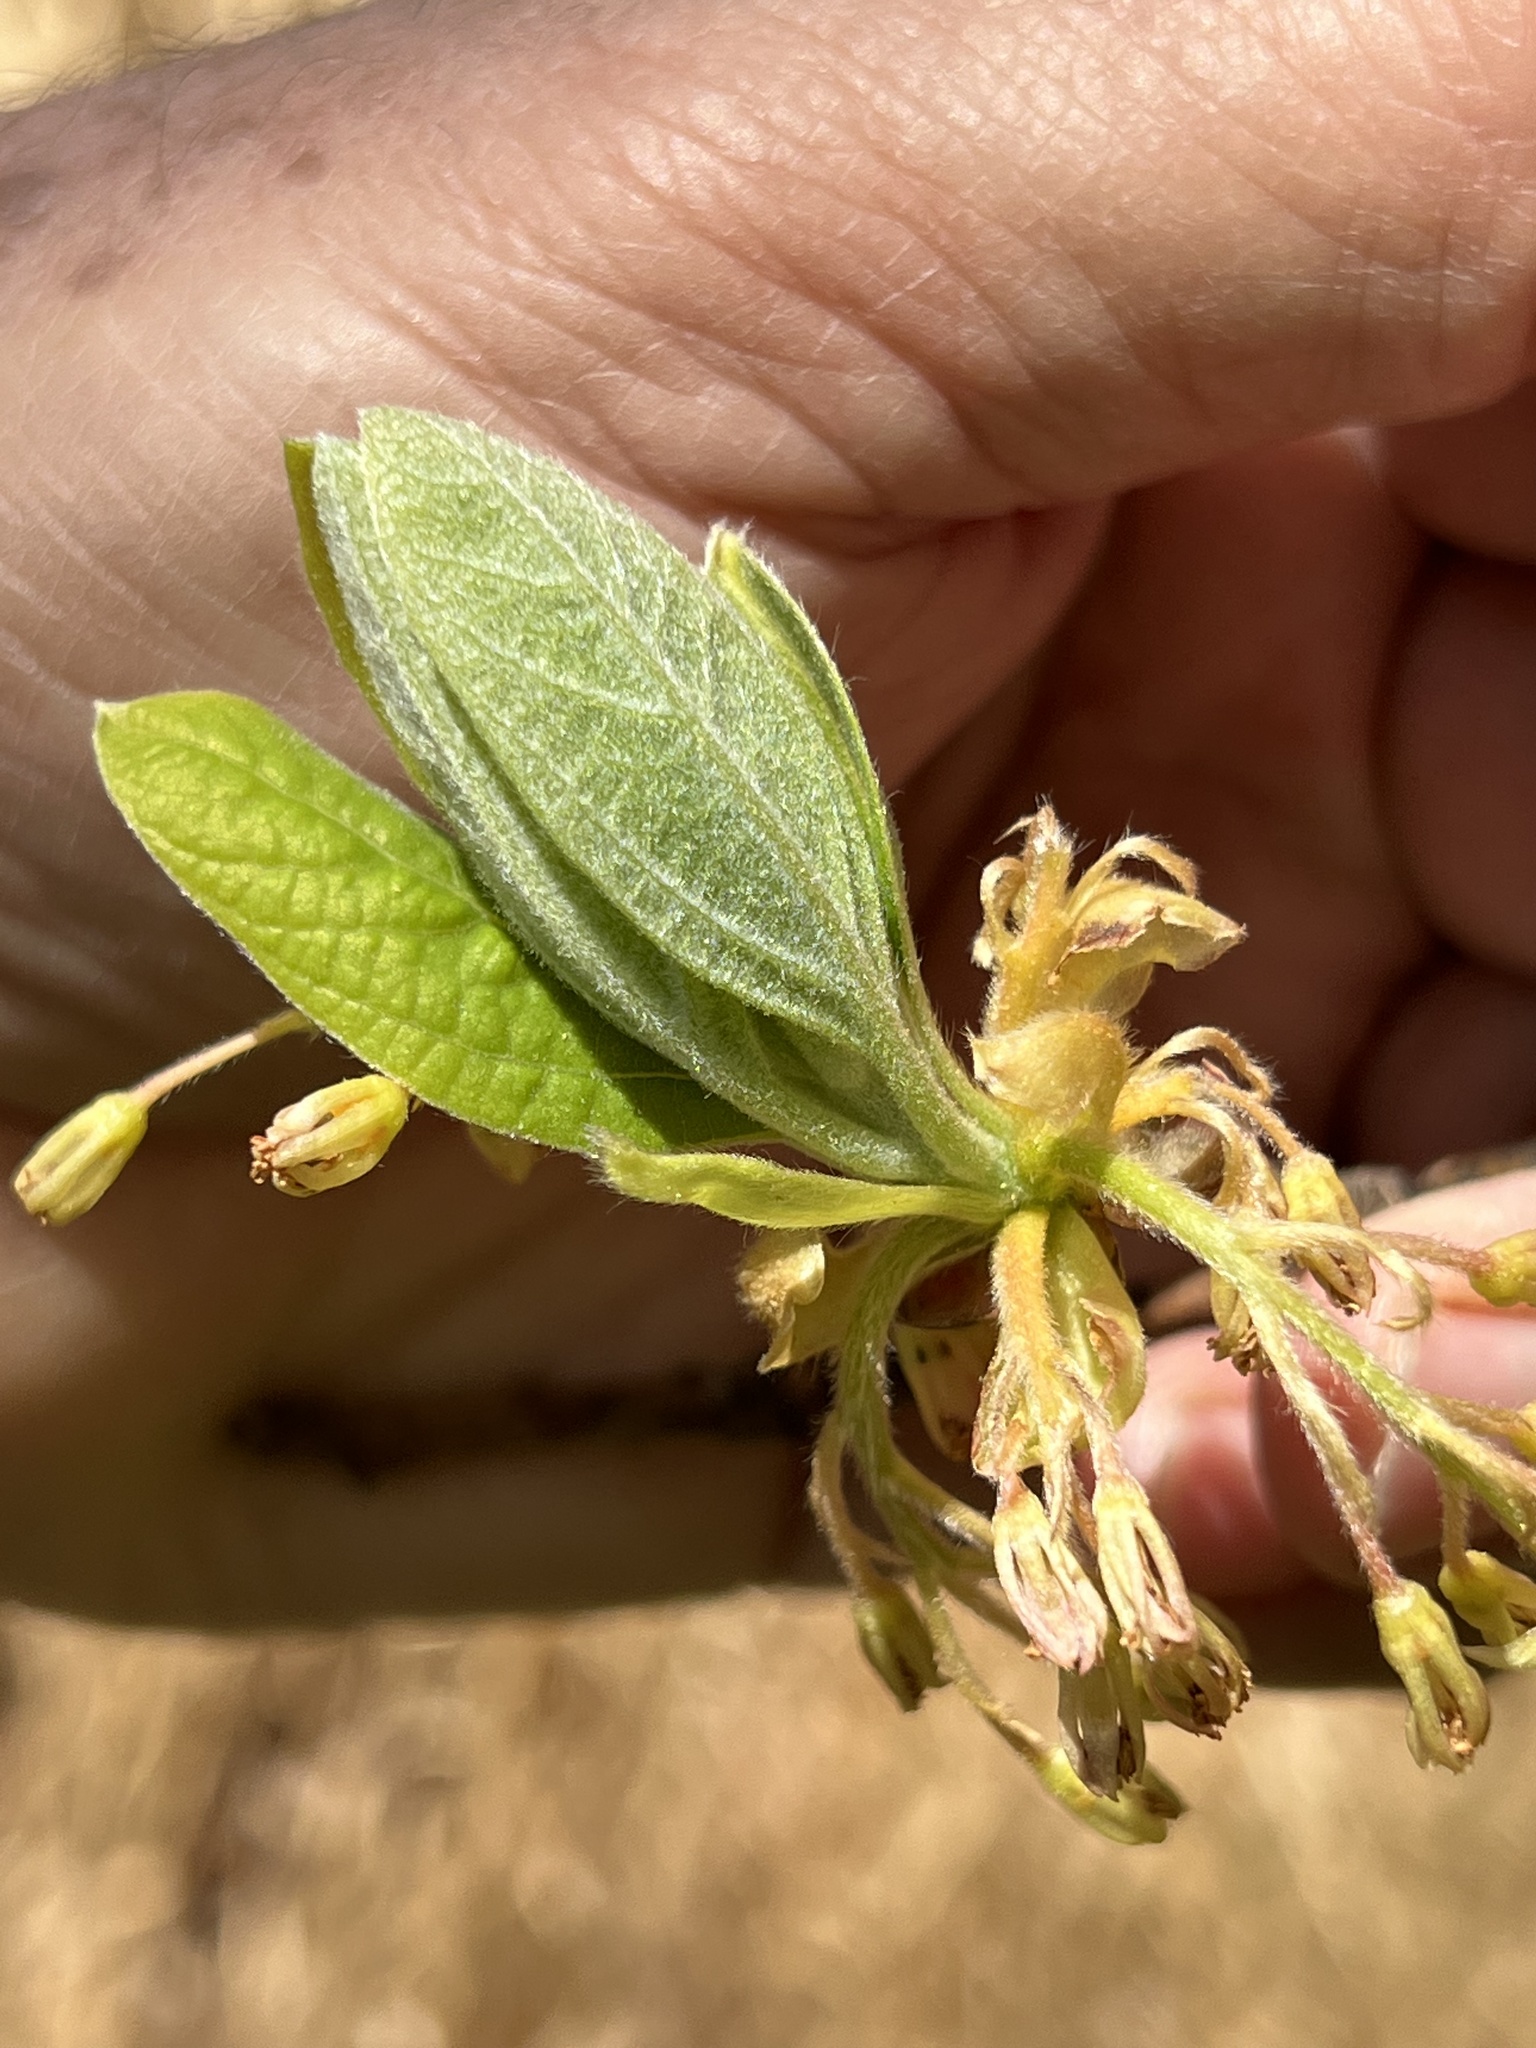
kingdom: Plantae
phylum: Tracheophyta
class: Magnoliopsida
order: Laurales
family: Lauraceae
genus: Sassafras
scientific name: Sassafras albidum
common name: Sassafras
